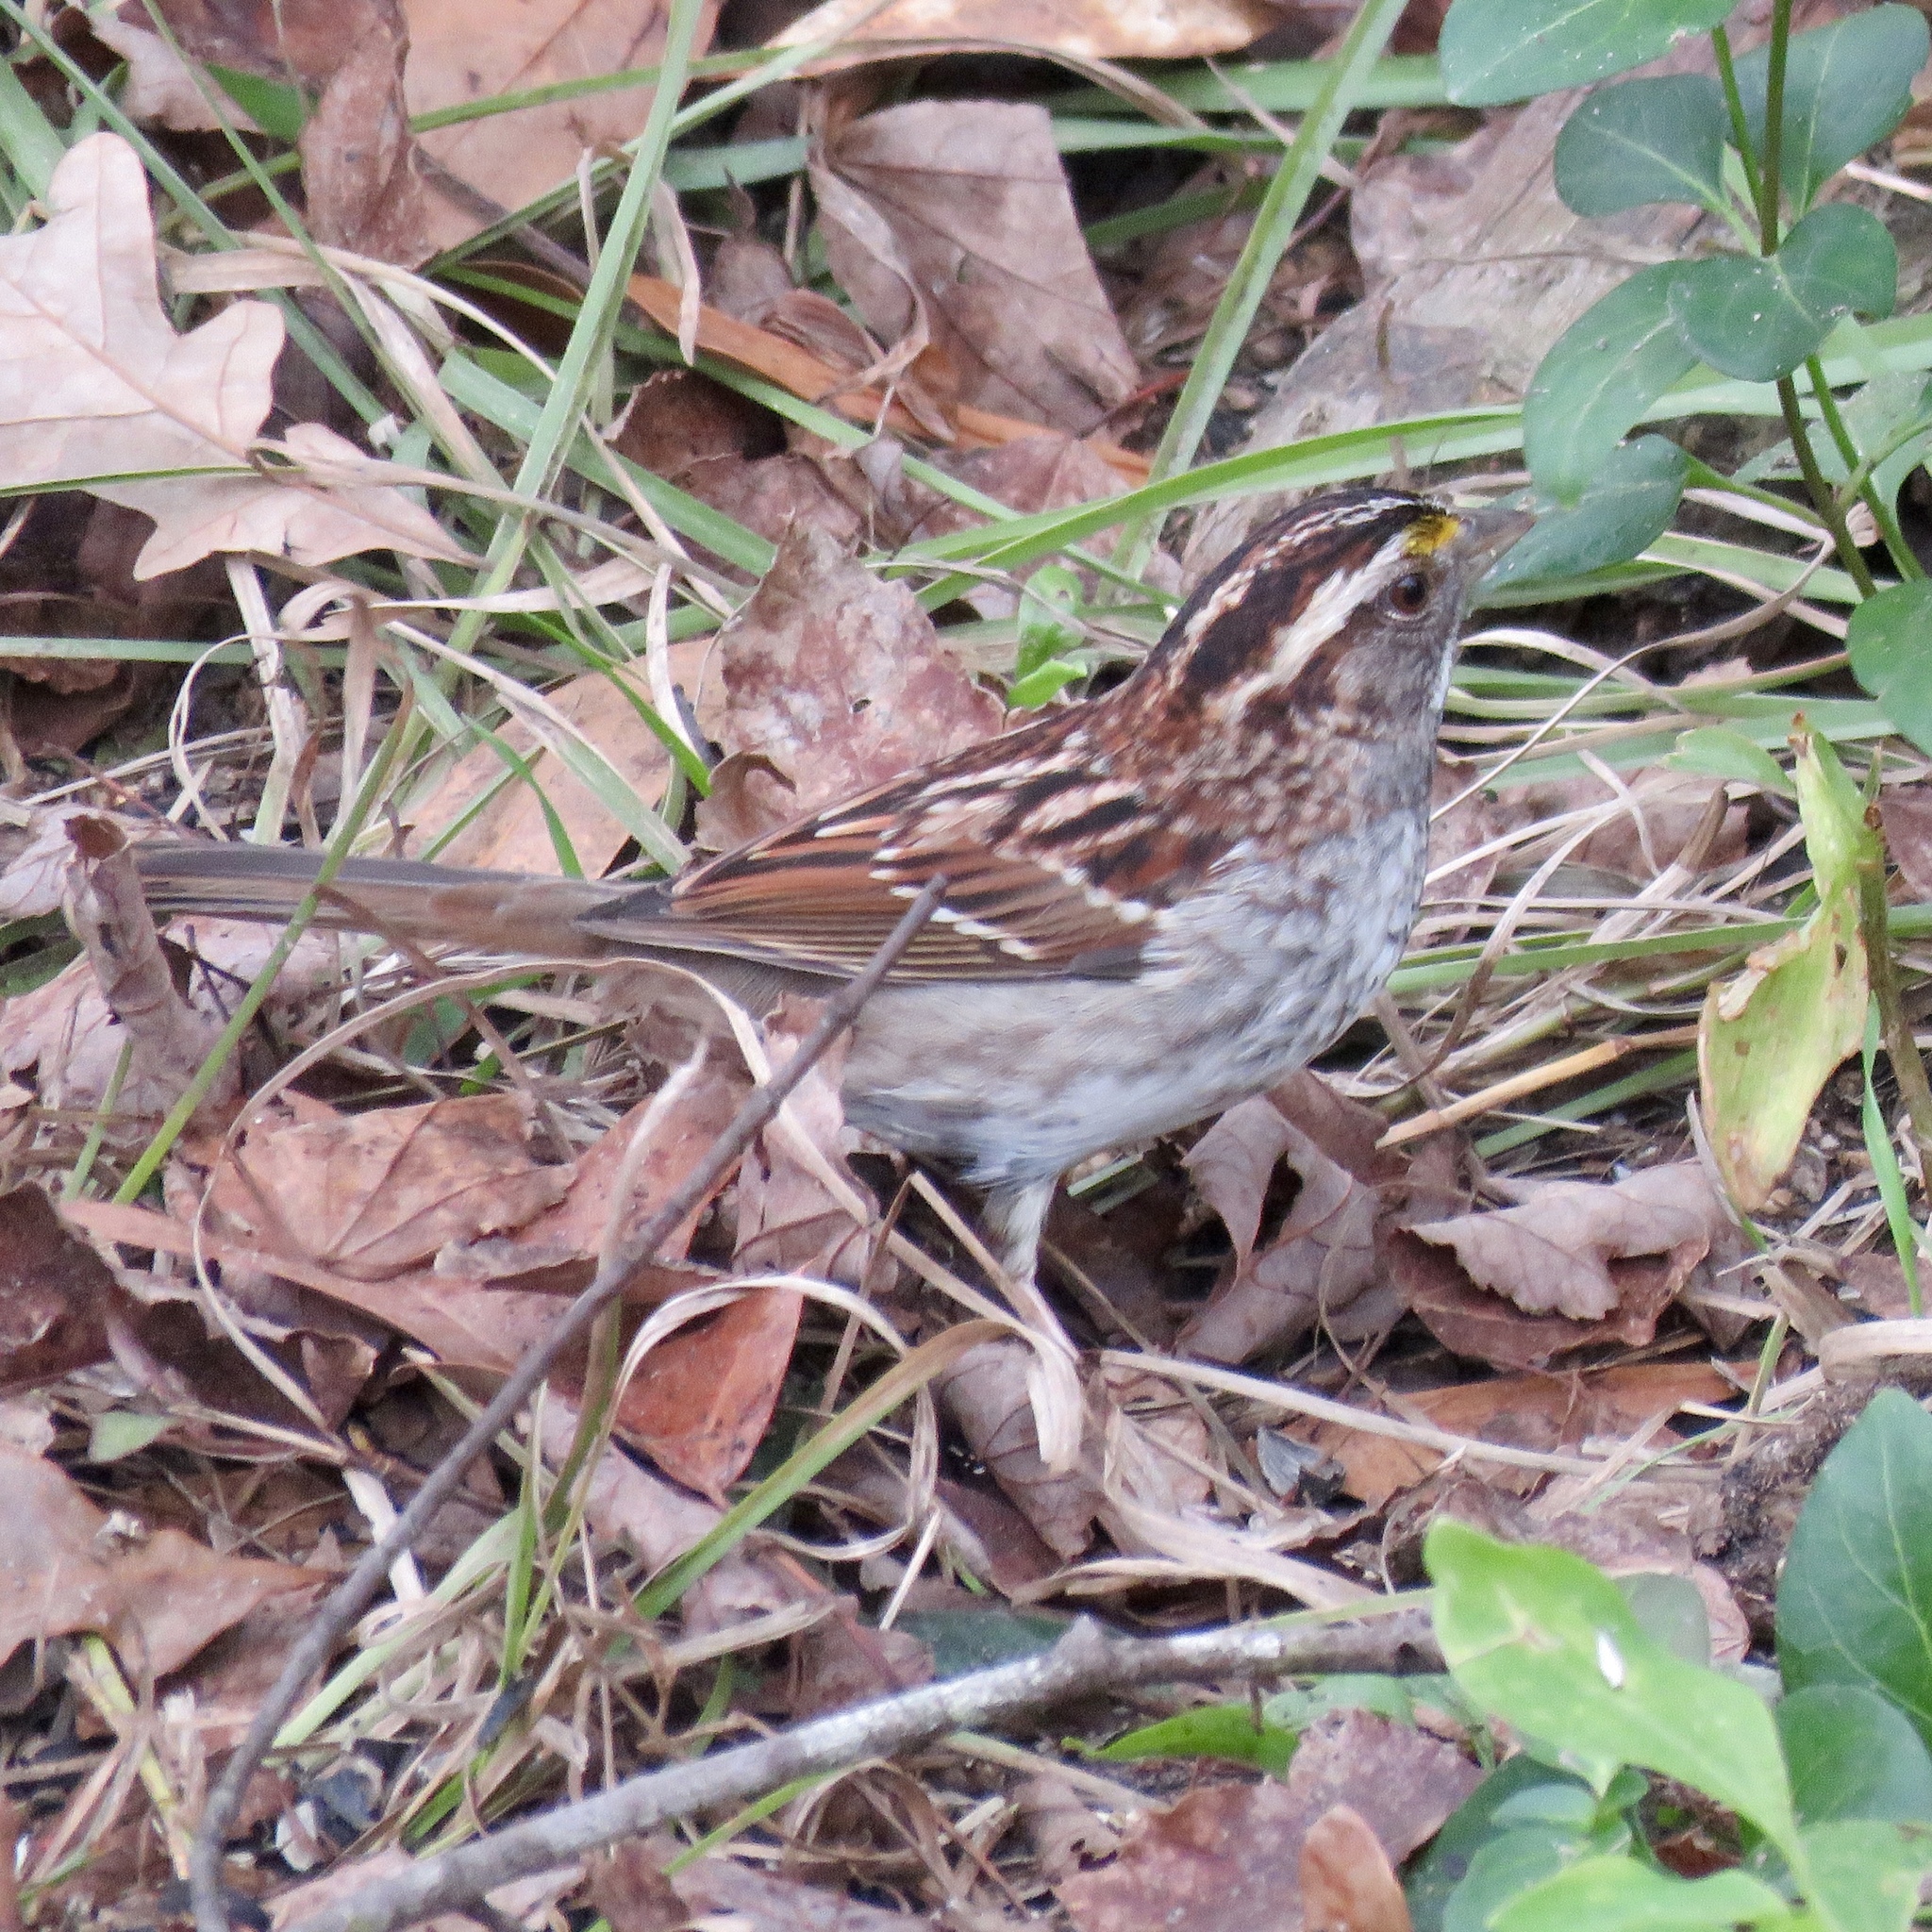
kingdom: Animalia
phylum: Chordata
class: Aves
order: Passeriformes
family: Passerellidae
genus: Zonotrichia
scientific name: Zonotrichia albicollis
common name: White-throated sparrow
